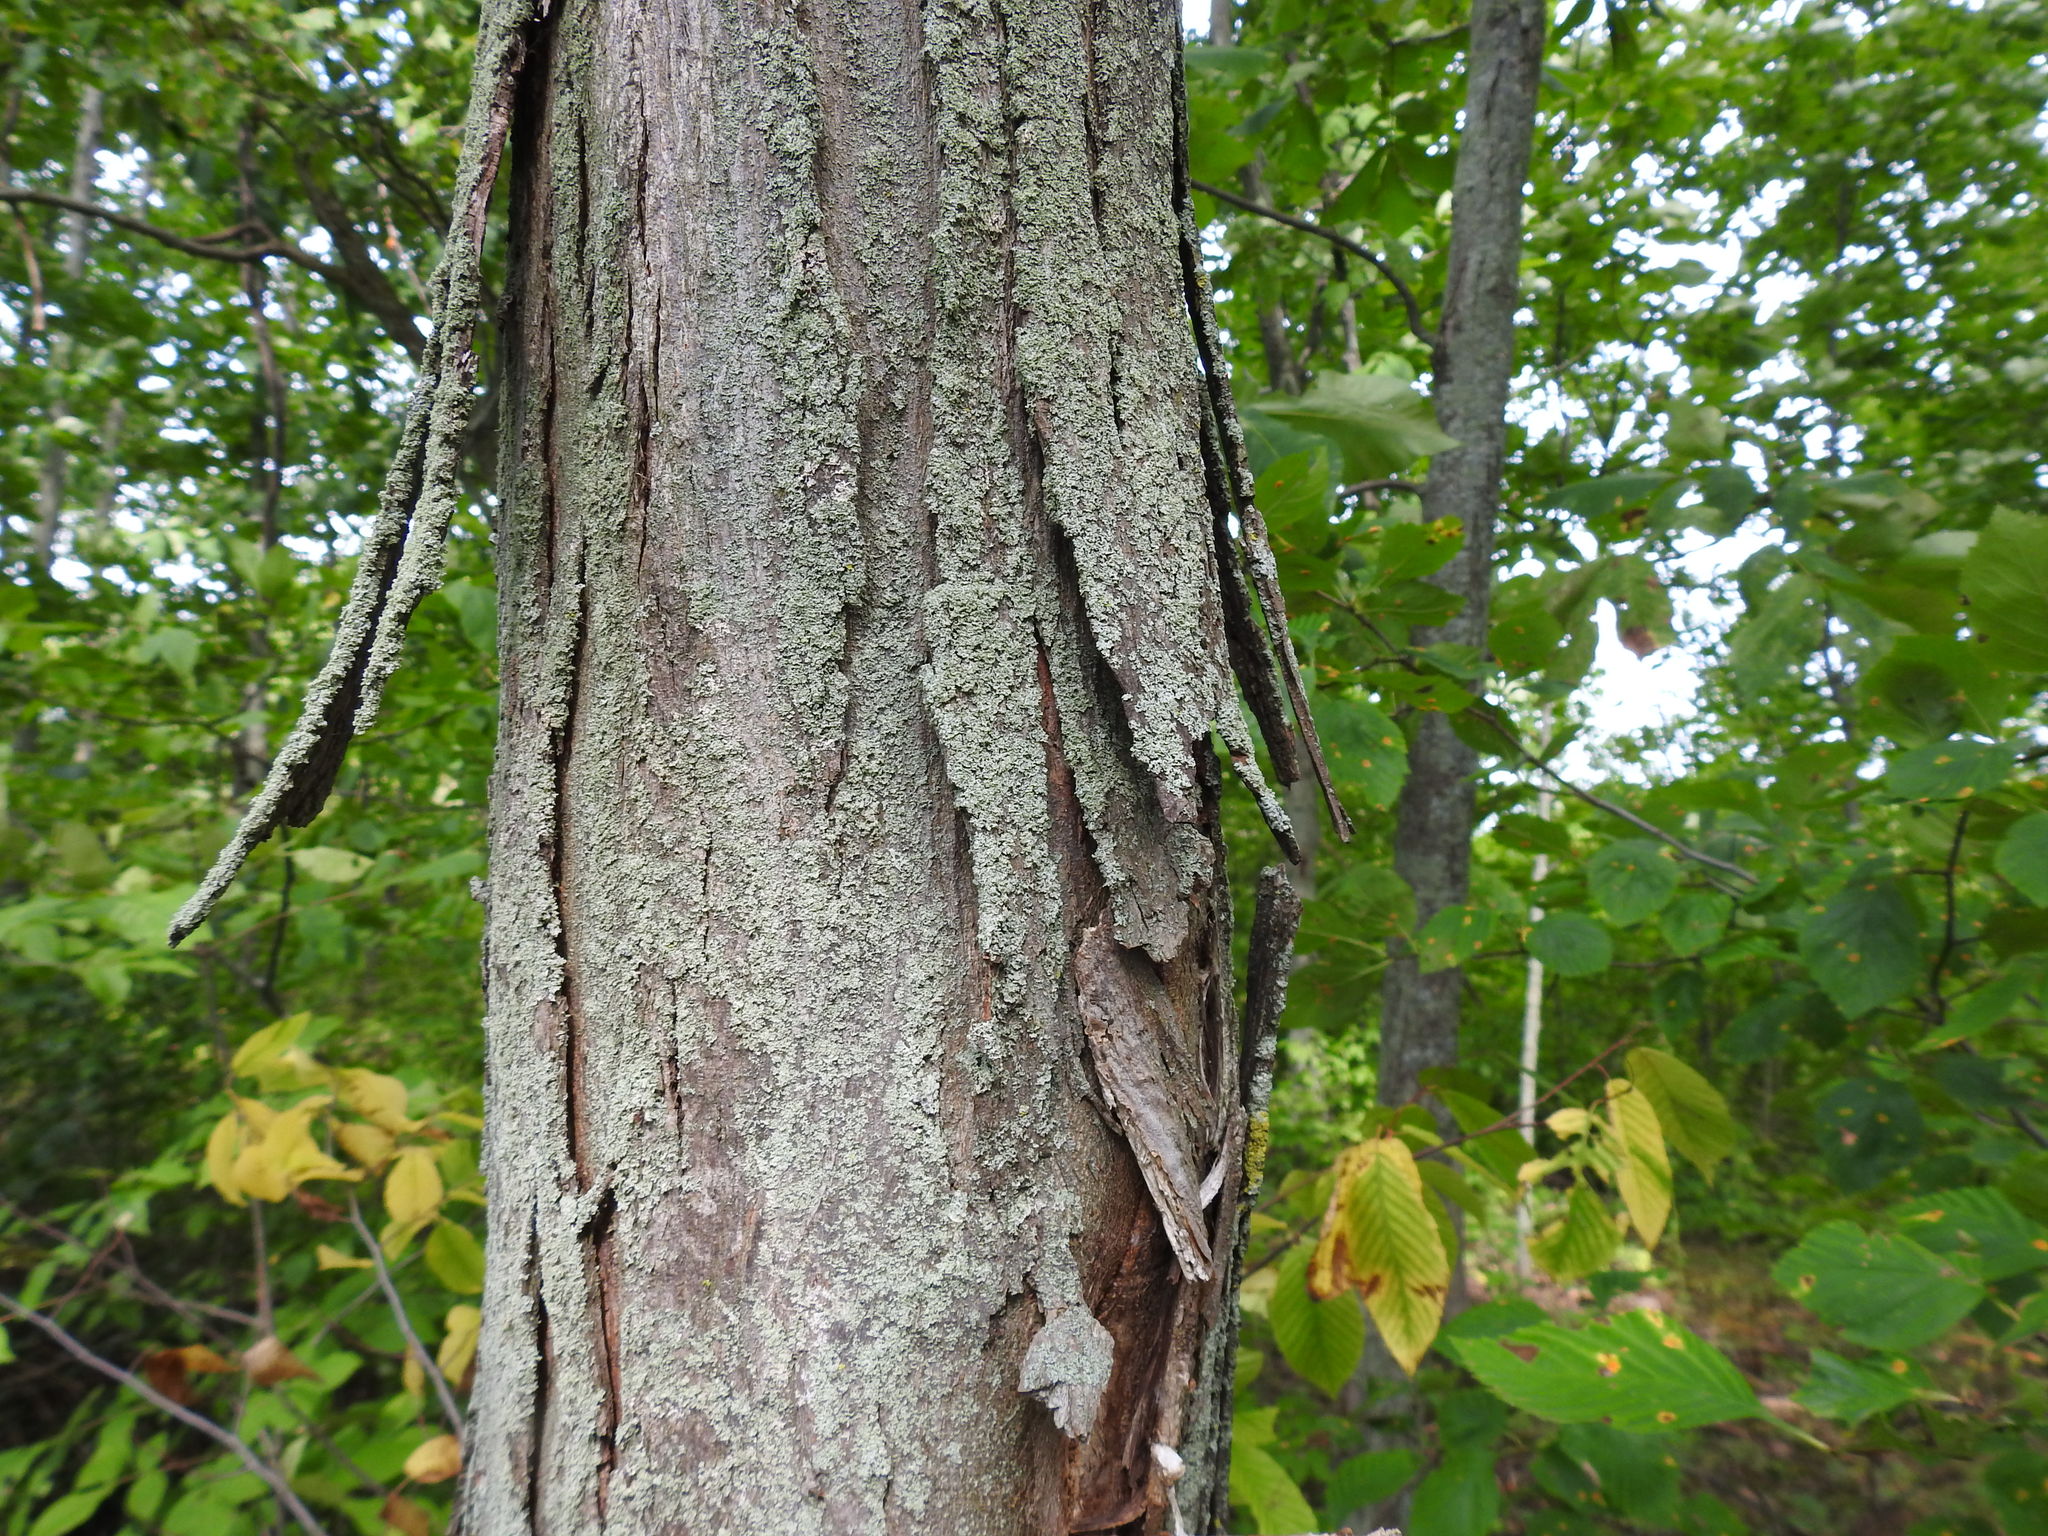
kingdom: Plantae
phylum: Tracheophyta
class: Magnoliopsida
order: Fagales
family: Juglandaceae
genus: Carya
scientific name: Carya ovata
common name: Shagbark hickory
